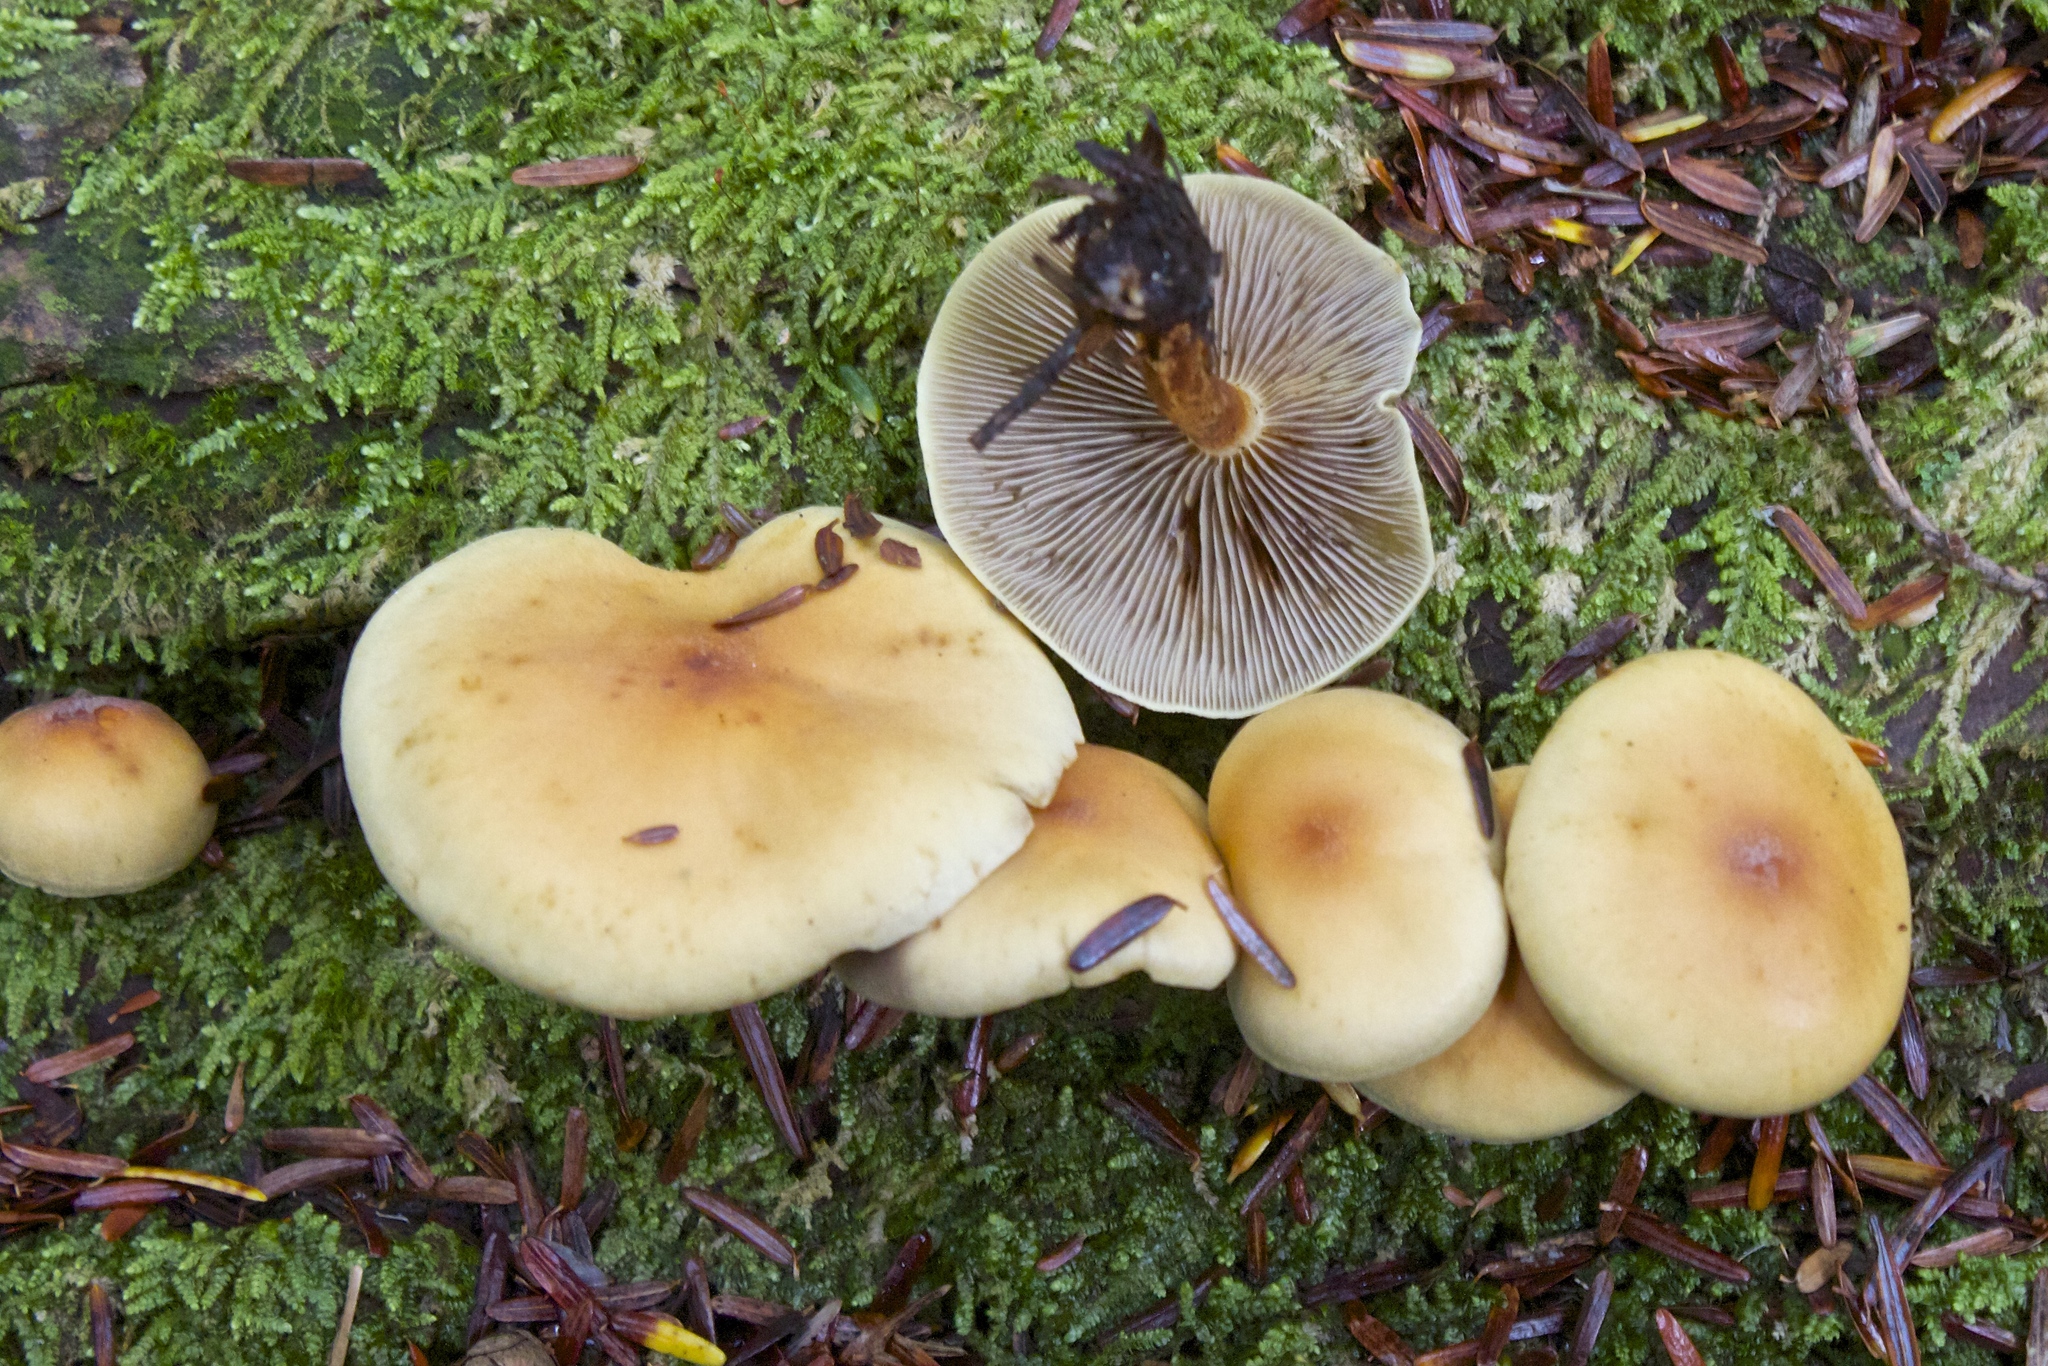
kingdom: Fungi
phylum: Basidiomycota
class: Agaricomycetes
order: Agaricales
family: Strophariaceae
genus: Hypholoma
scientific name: Hypholoma fasciculare
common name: Sulphur tuft
